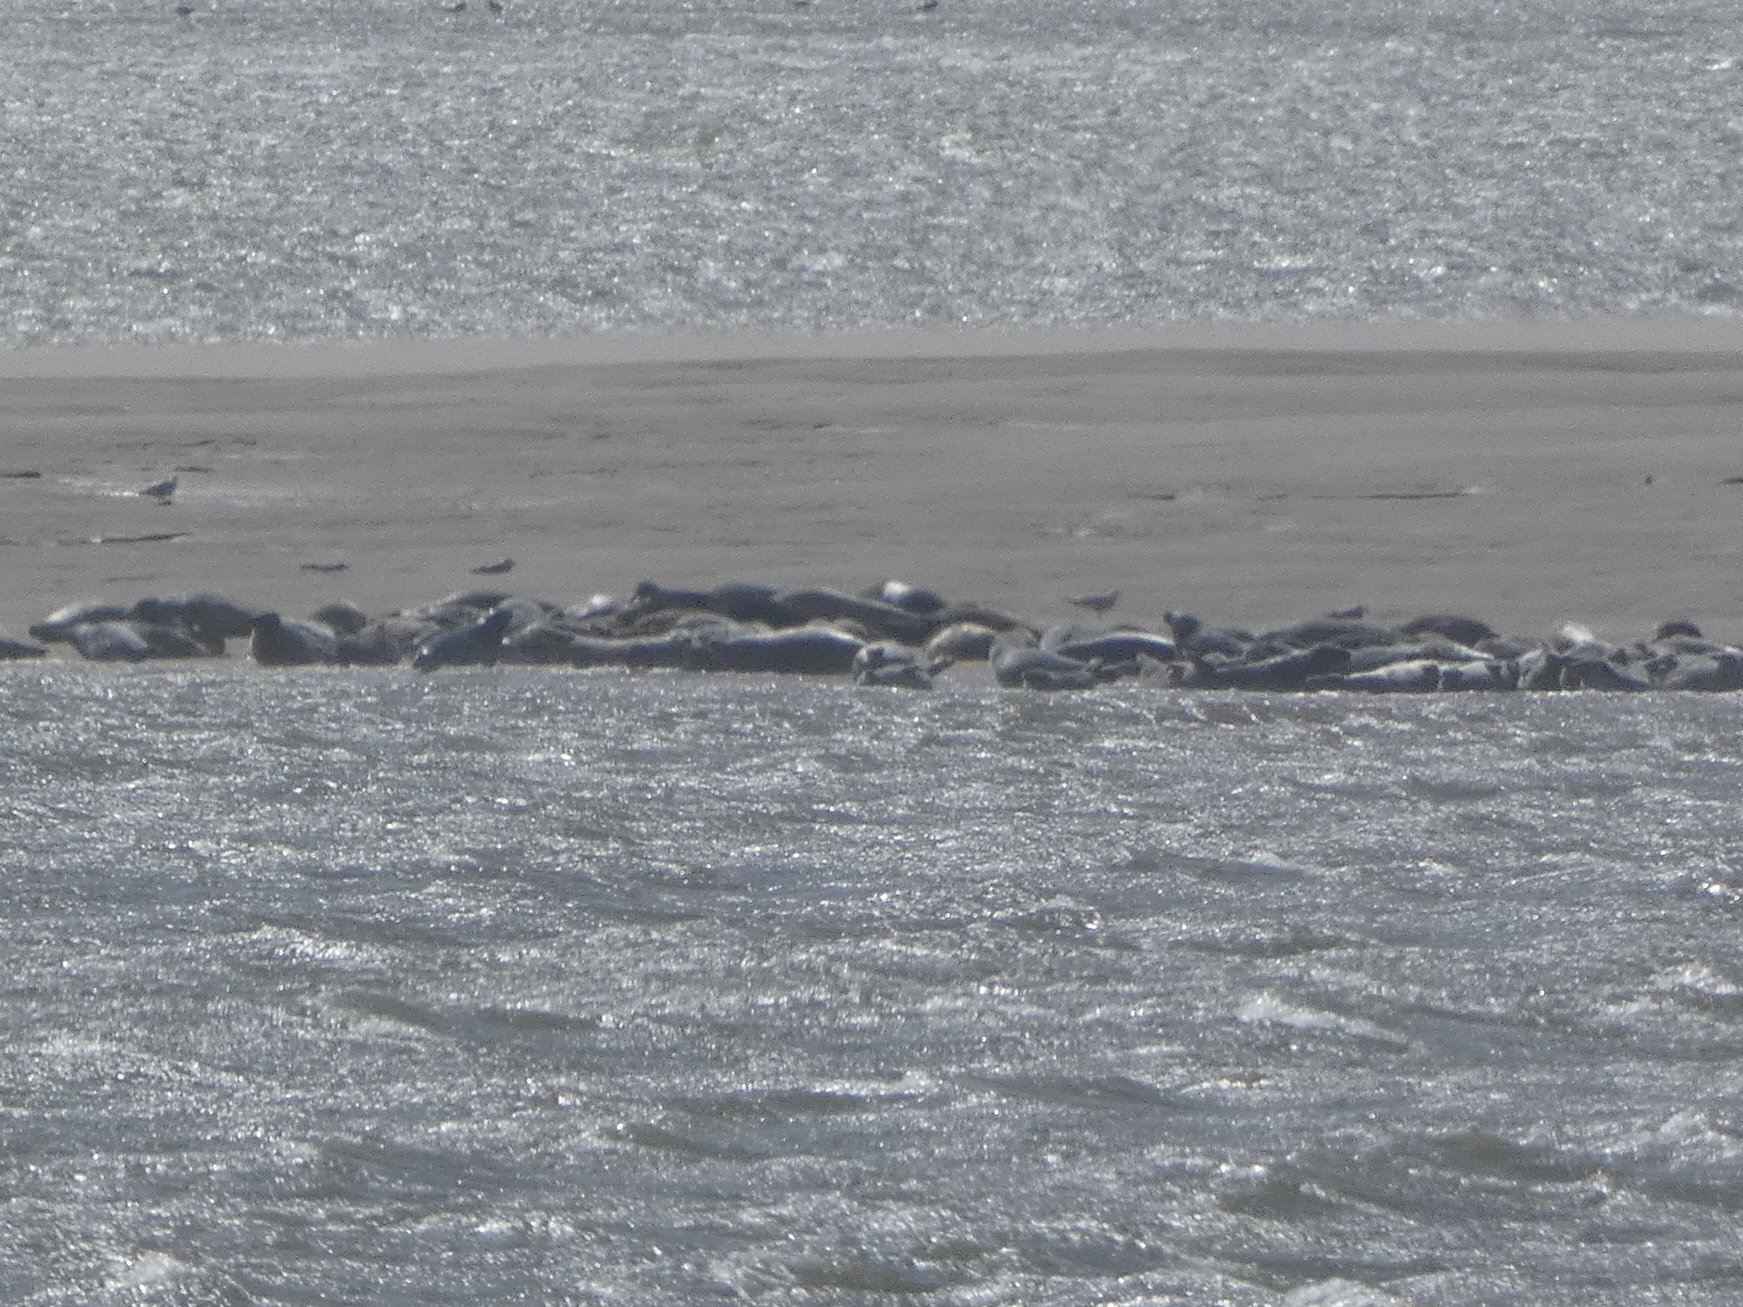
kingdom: Animalia
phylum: Chordata
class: Mammalia
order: Carnivora
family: Phocidae
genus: Halichoerus
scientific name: Halichoerus grypus
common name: Grey seal
